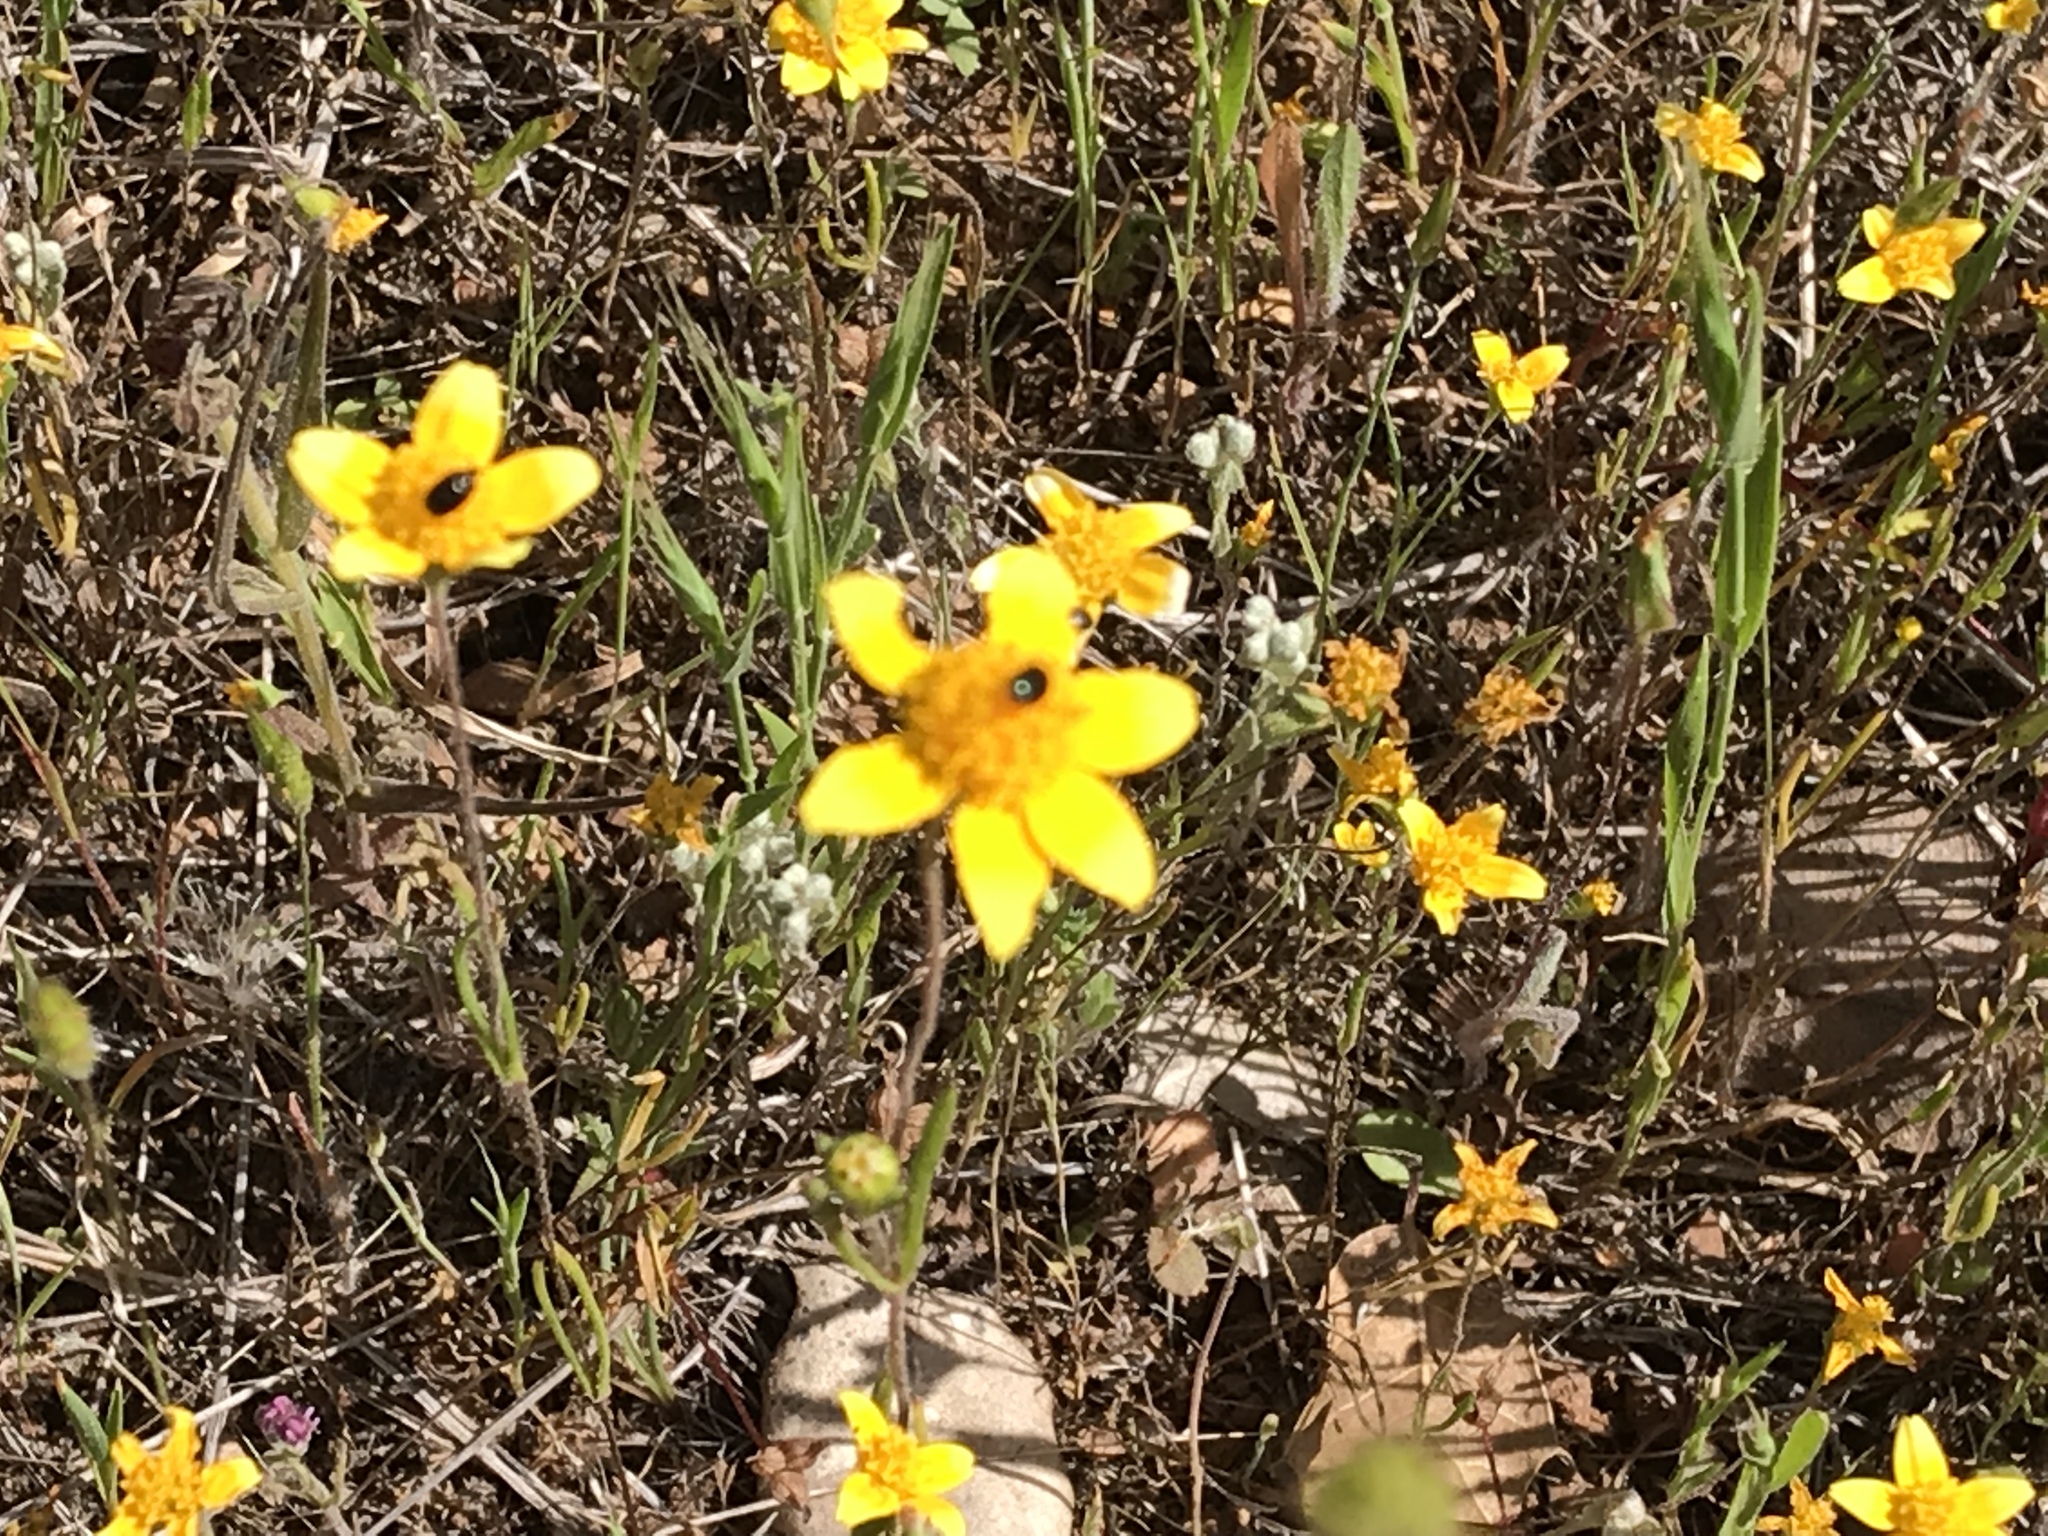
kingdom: Plantae
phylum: Tracheophyta
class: Magnoliopsida
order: Asterales
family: Asteraceae
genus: Lasthenia
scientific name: Lasthenia californica
